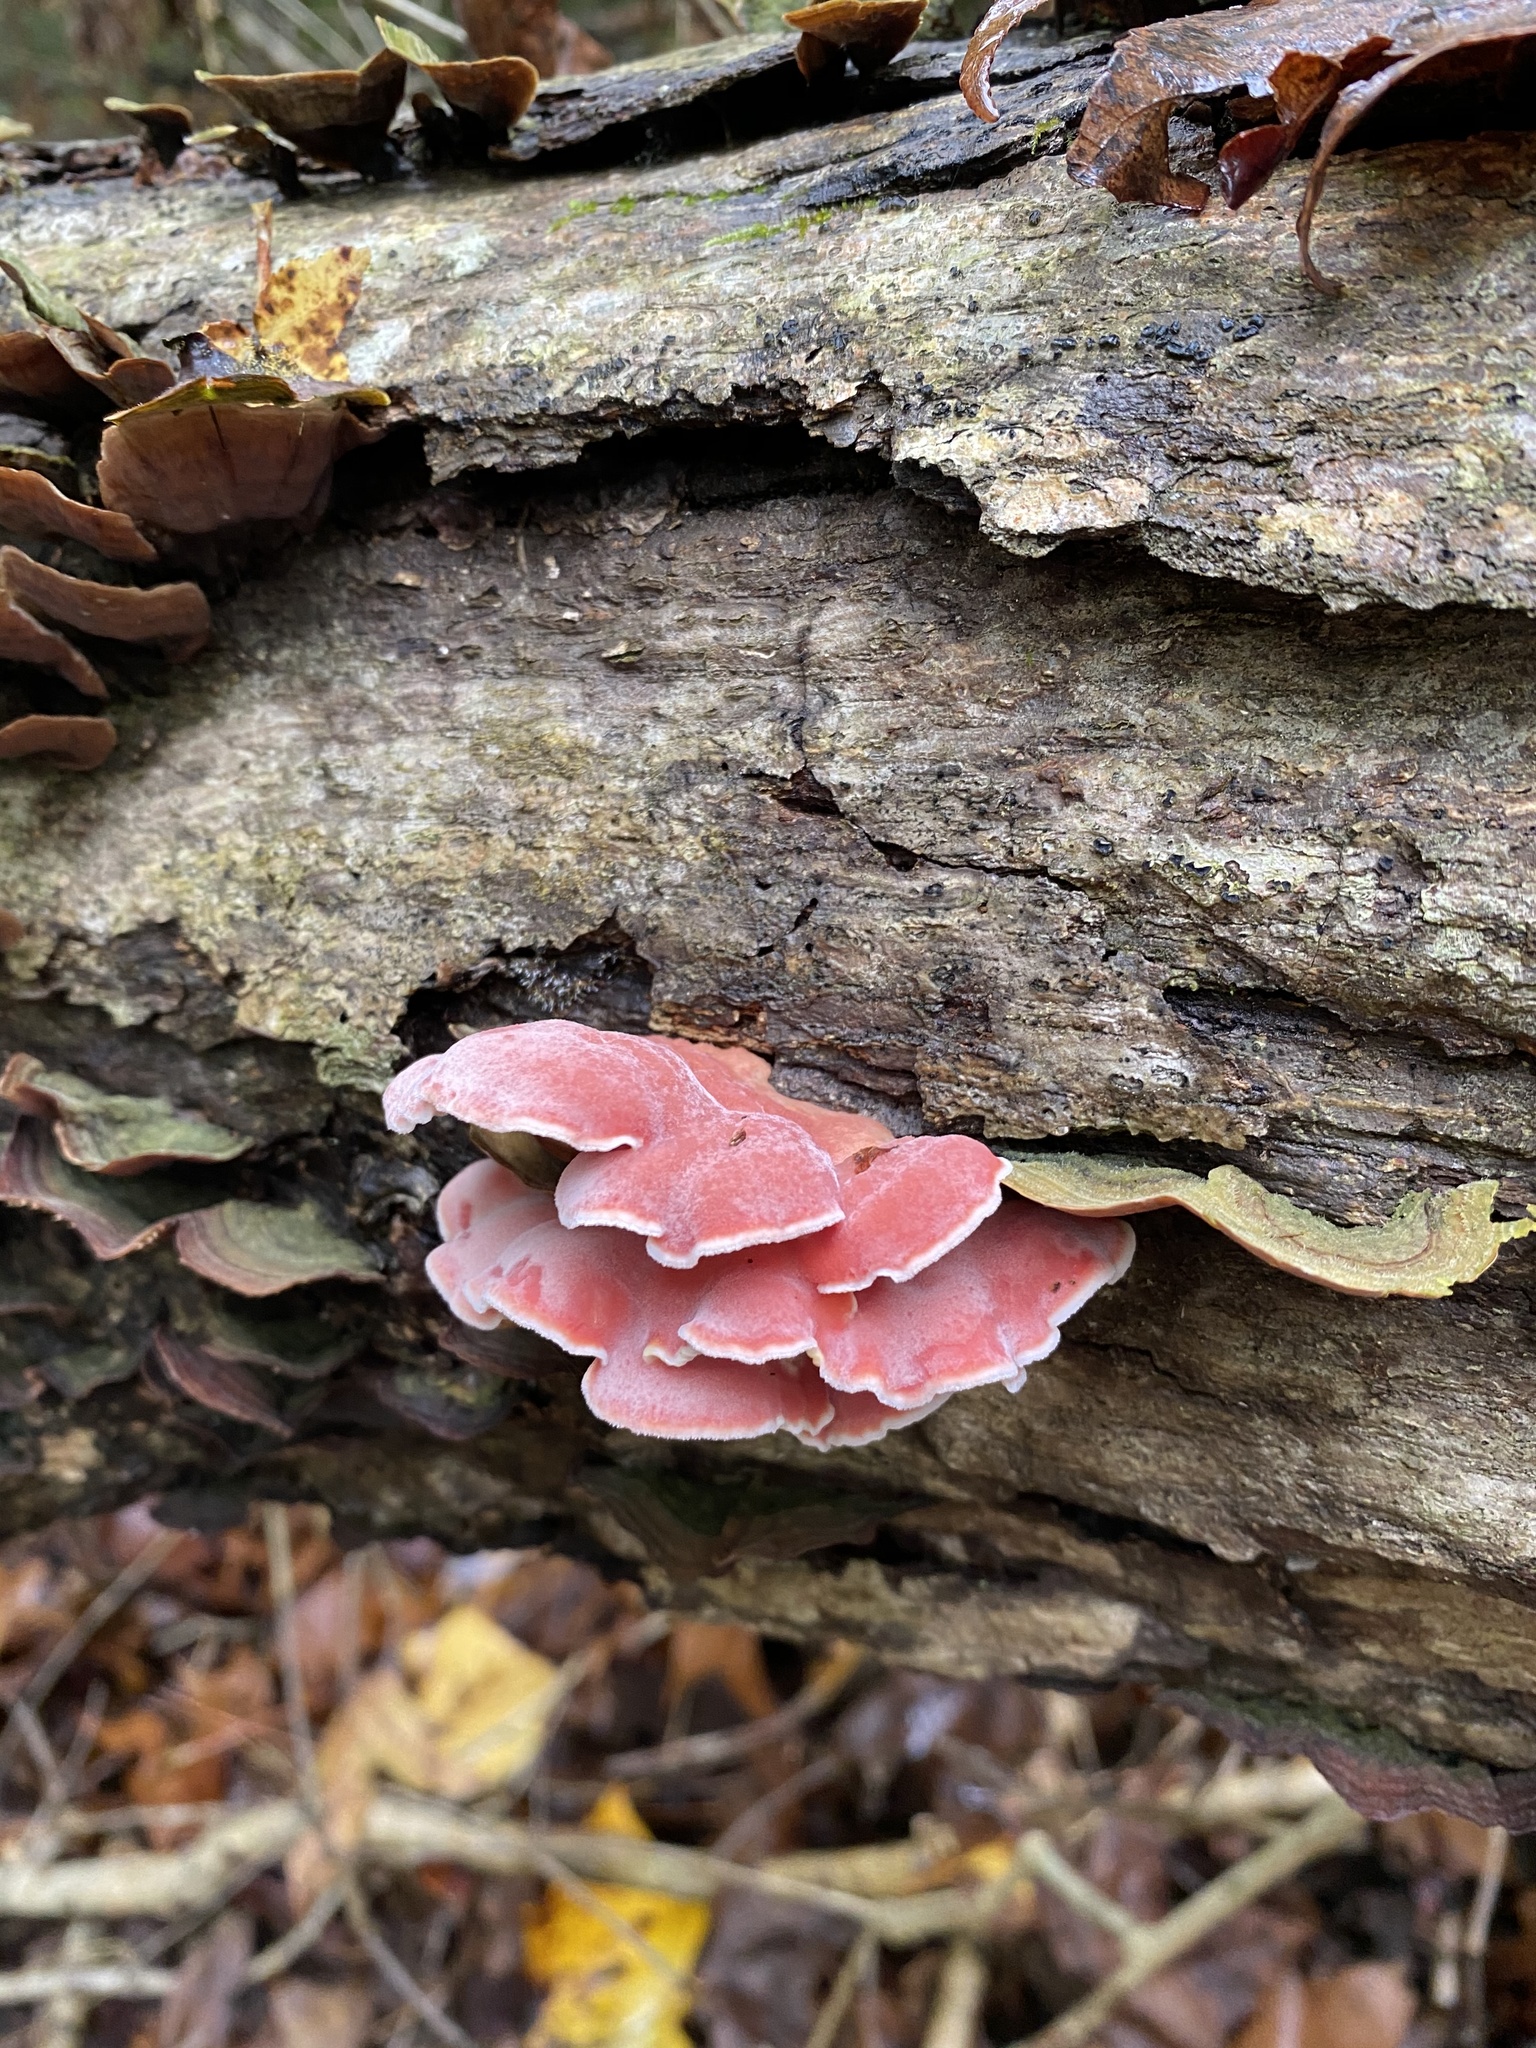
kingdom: Fungi
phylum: Basidiomycota
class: Agaricomycetes
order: Polyporales
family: Irpicaceae
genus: Byssomerulius
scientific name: Byssomerulius incarnatus
